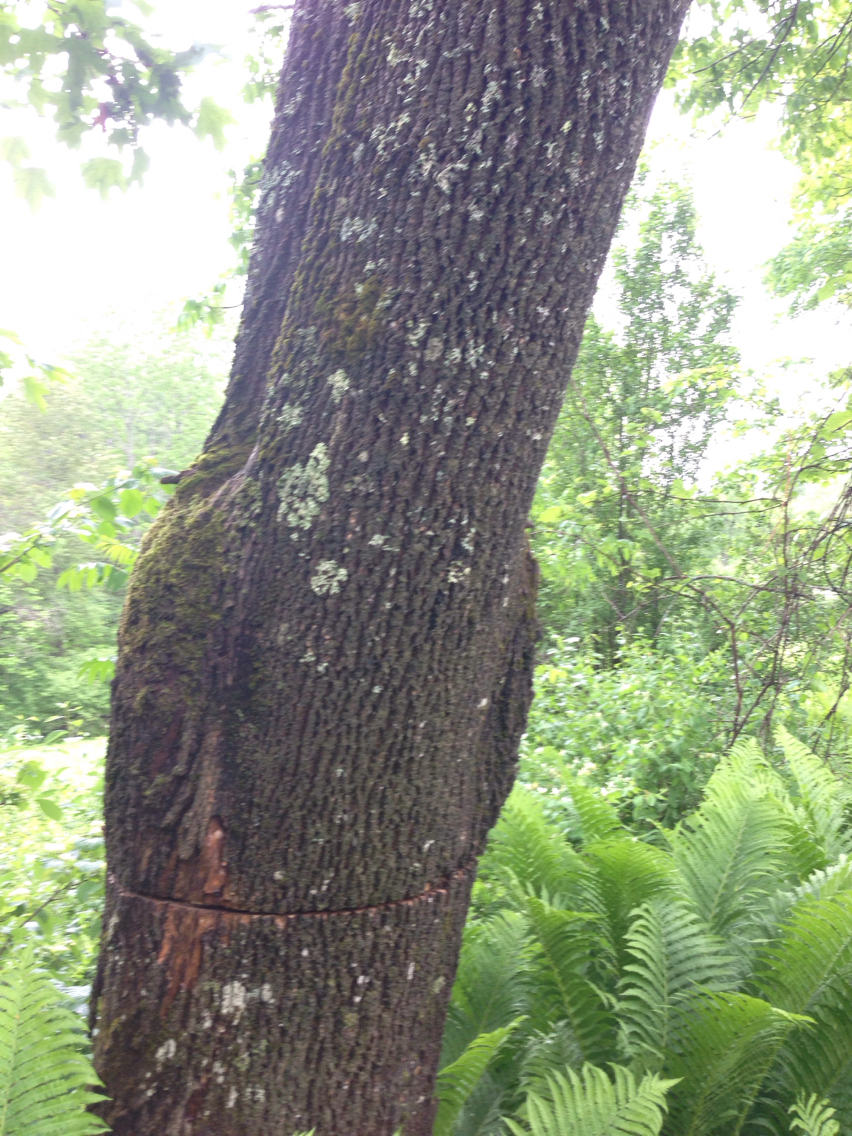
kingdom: Plantae
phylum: Tracheophyta
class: Magnoliopsida
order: Lamiales
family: Oleaceae
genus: Fraxinus
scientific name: Fraxinus americana
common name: White ash
